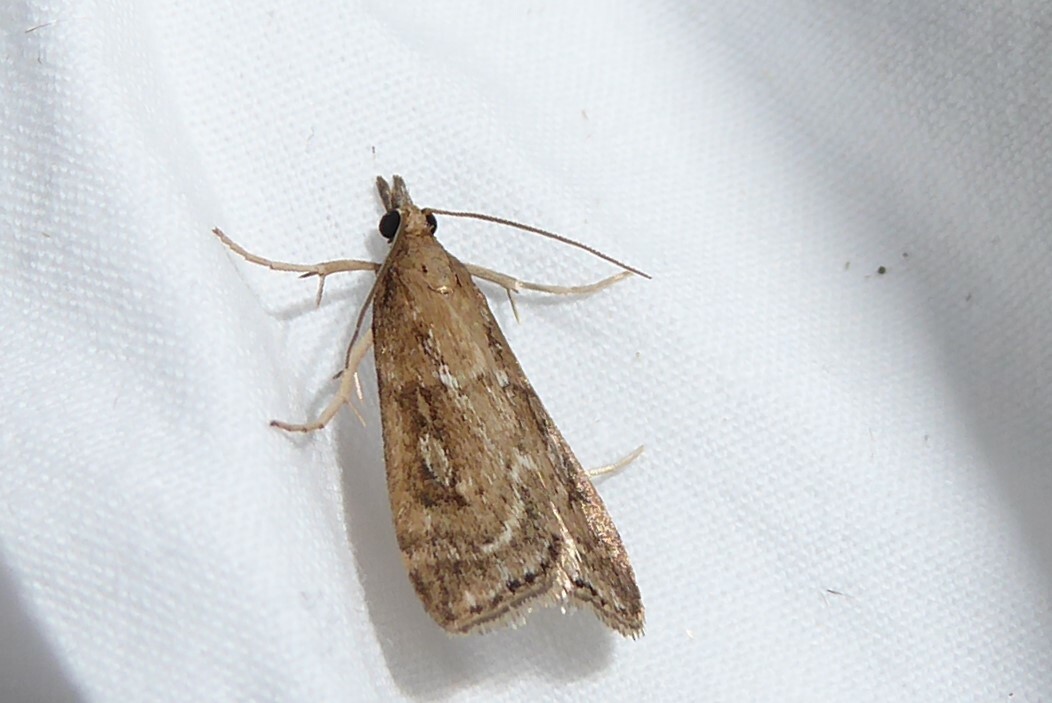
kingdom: Animalia
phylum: Arthropoda
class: Insecta
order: Lepidoptera
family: Crambidae
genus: Eudonia
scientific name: Eudonia octophora
